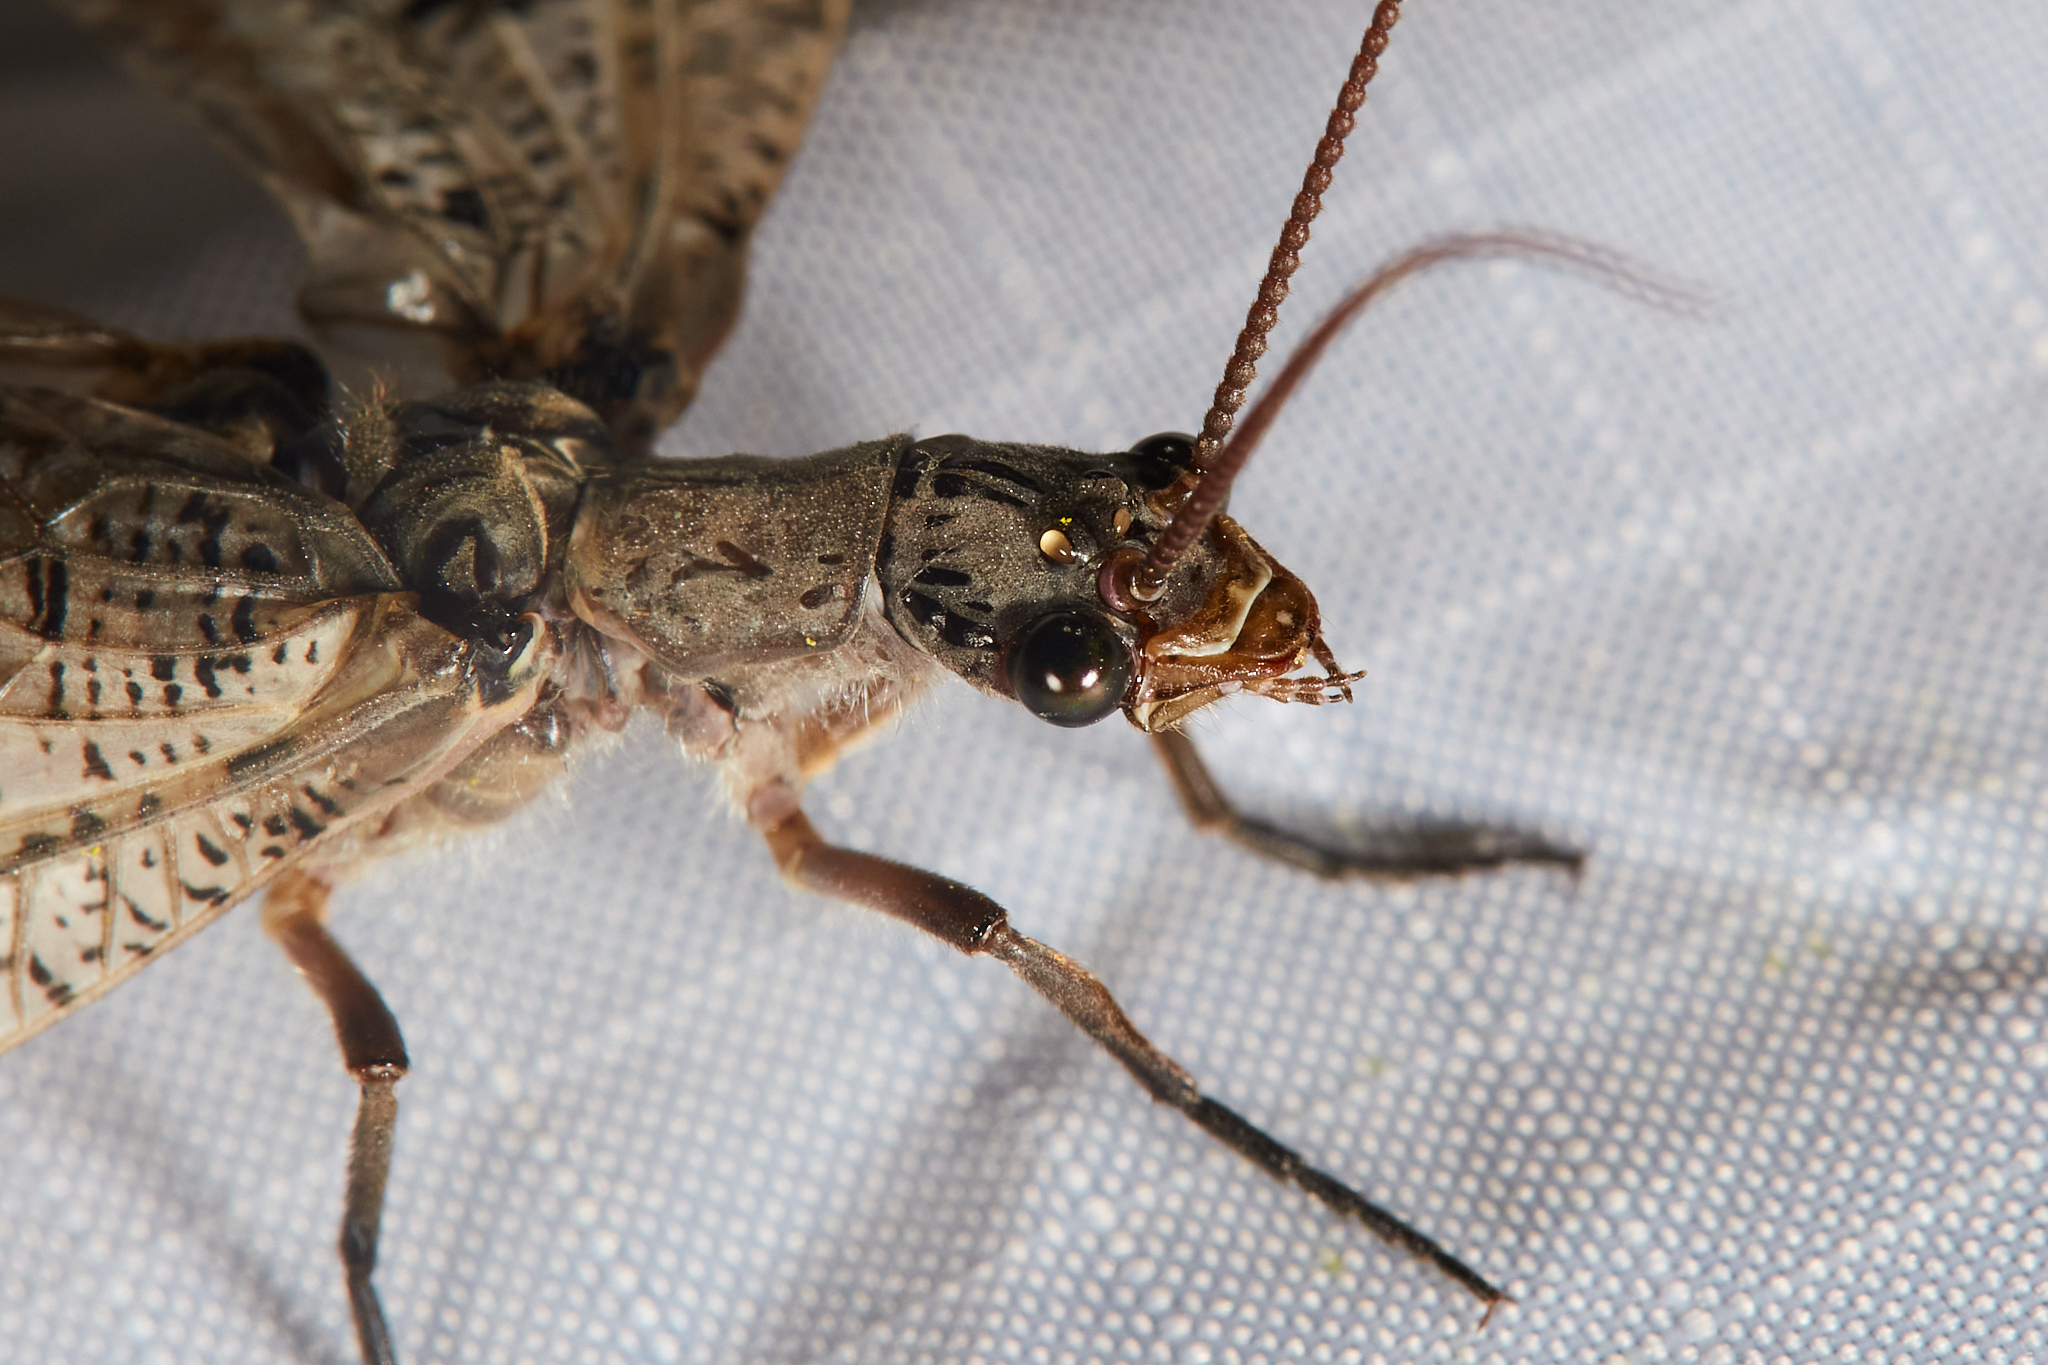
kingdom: Animalia
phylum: Arthropoda
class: Insecta
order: Megaloptera
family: Corydalidae
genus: Neohermes
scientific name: Neohermes filicornis
